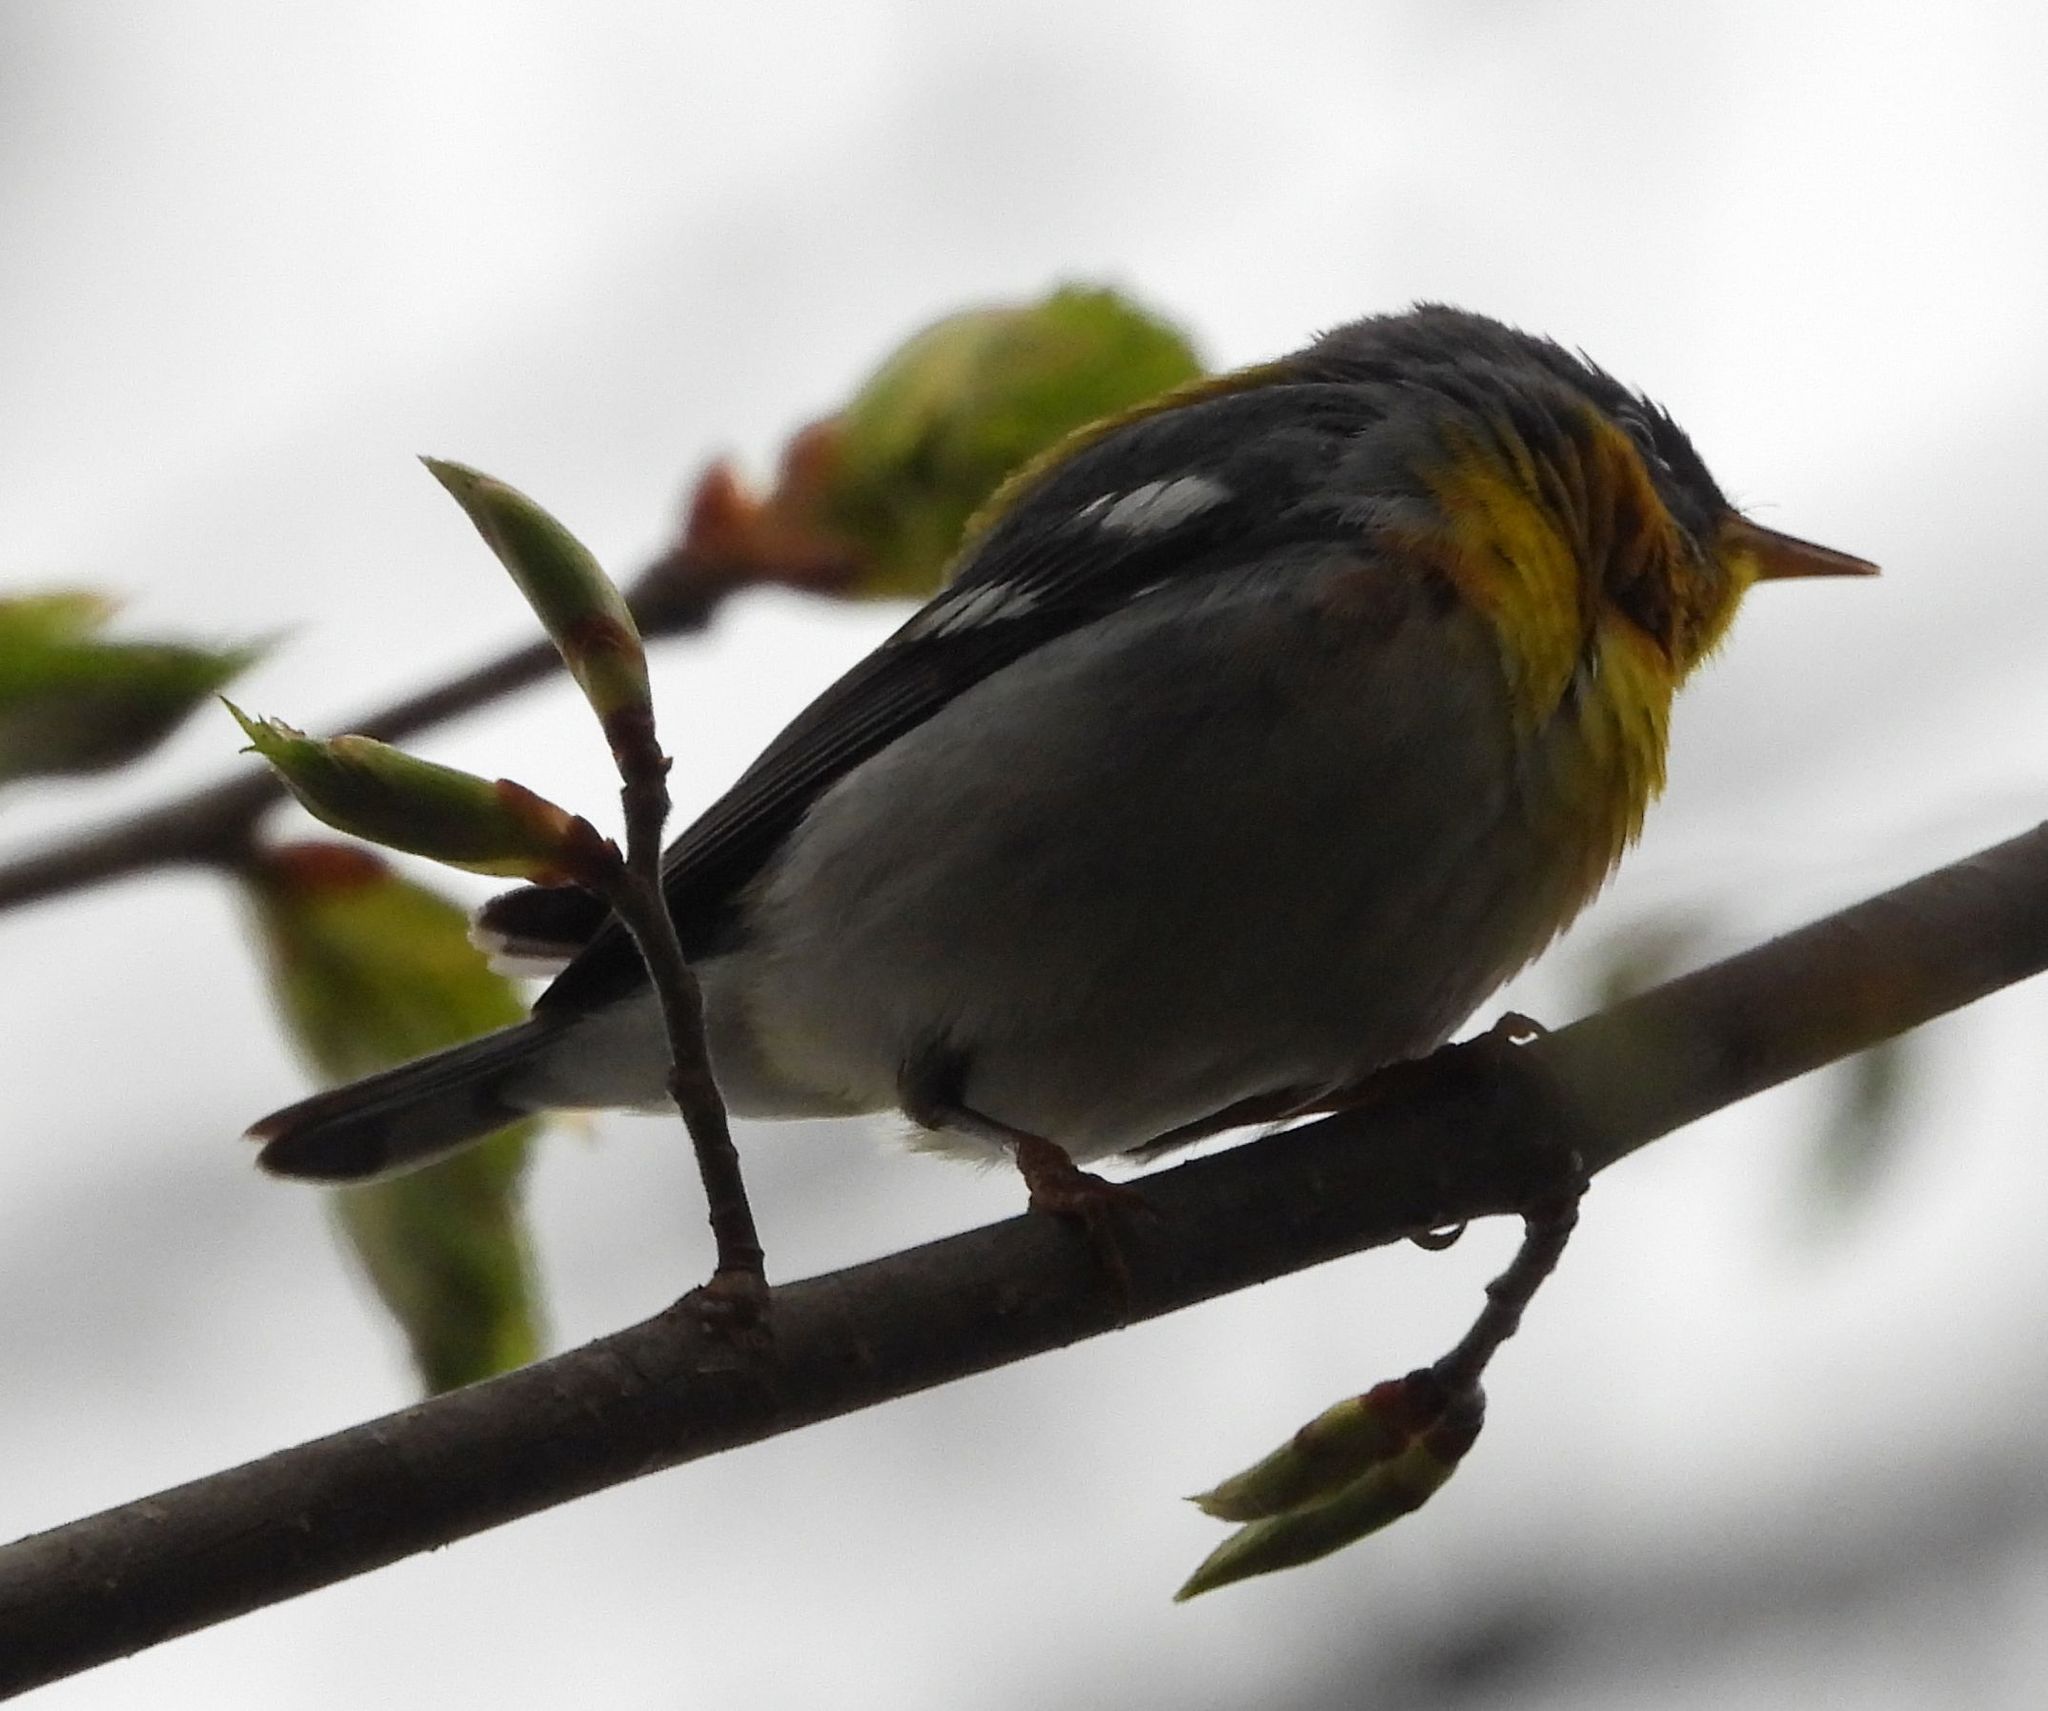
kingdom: Animalia
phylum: Chordata
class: Aves
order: Passeriformes
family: Parulidae
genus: Setophaga
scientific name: Setophaga americana
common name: Northern parula
